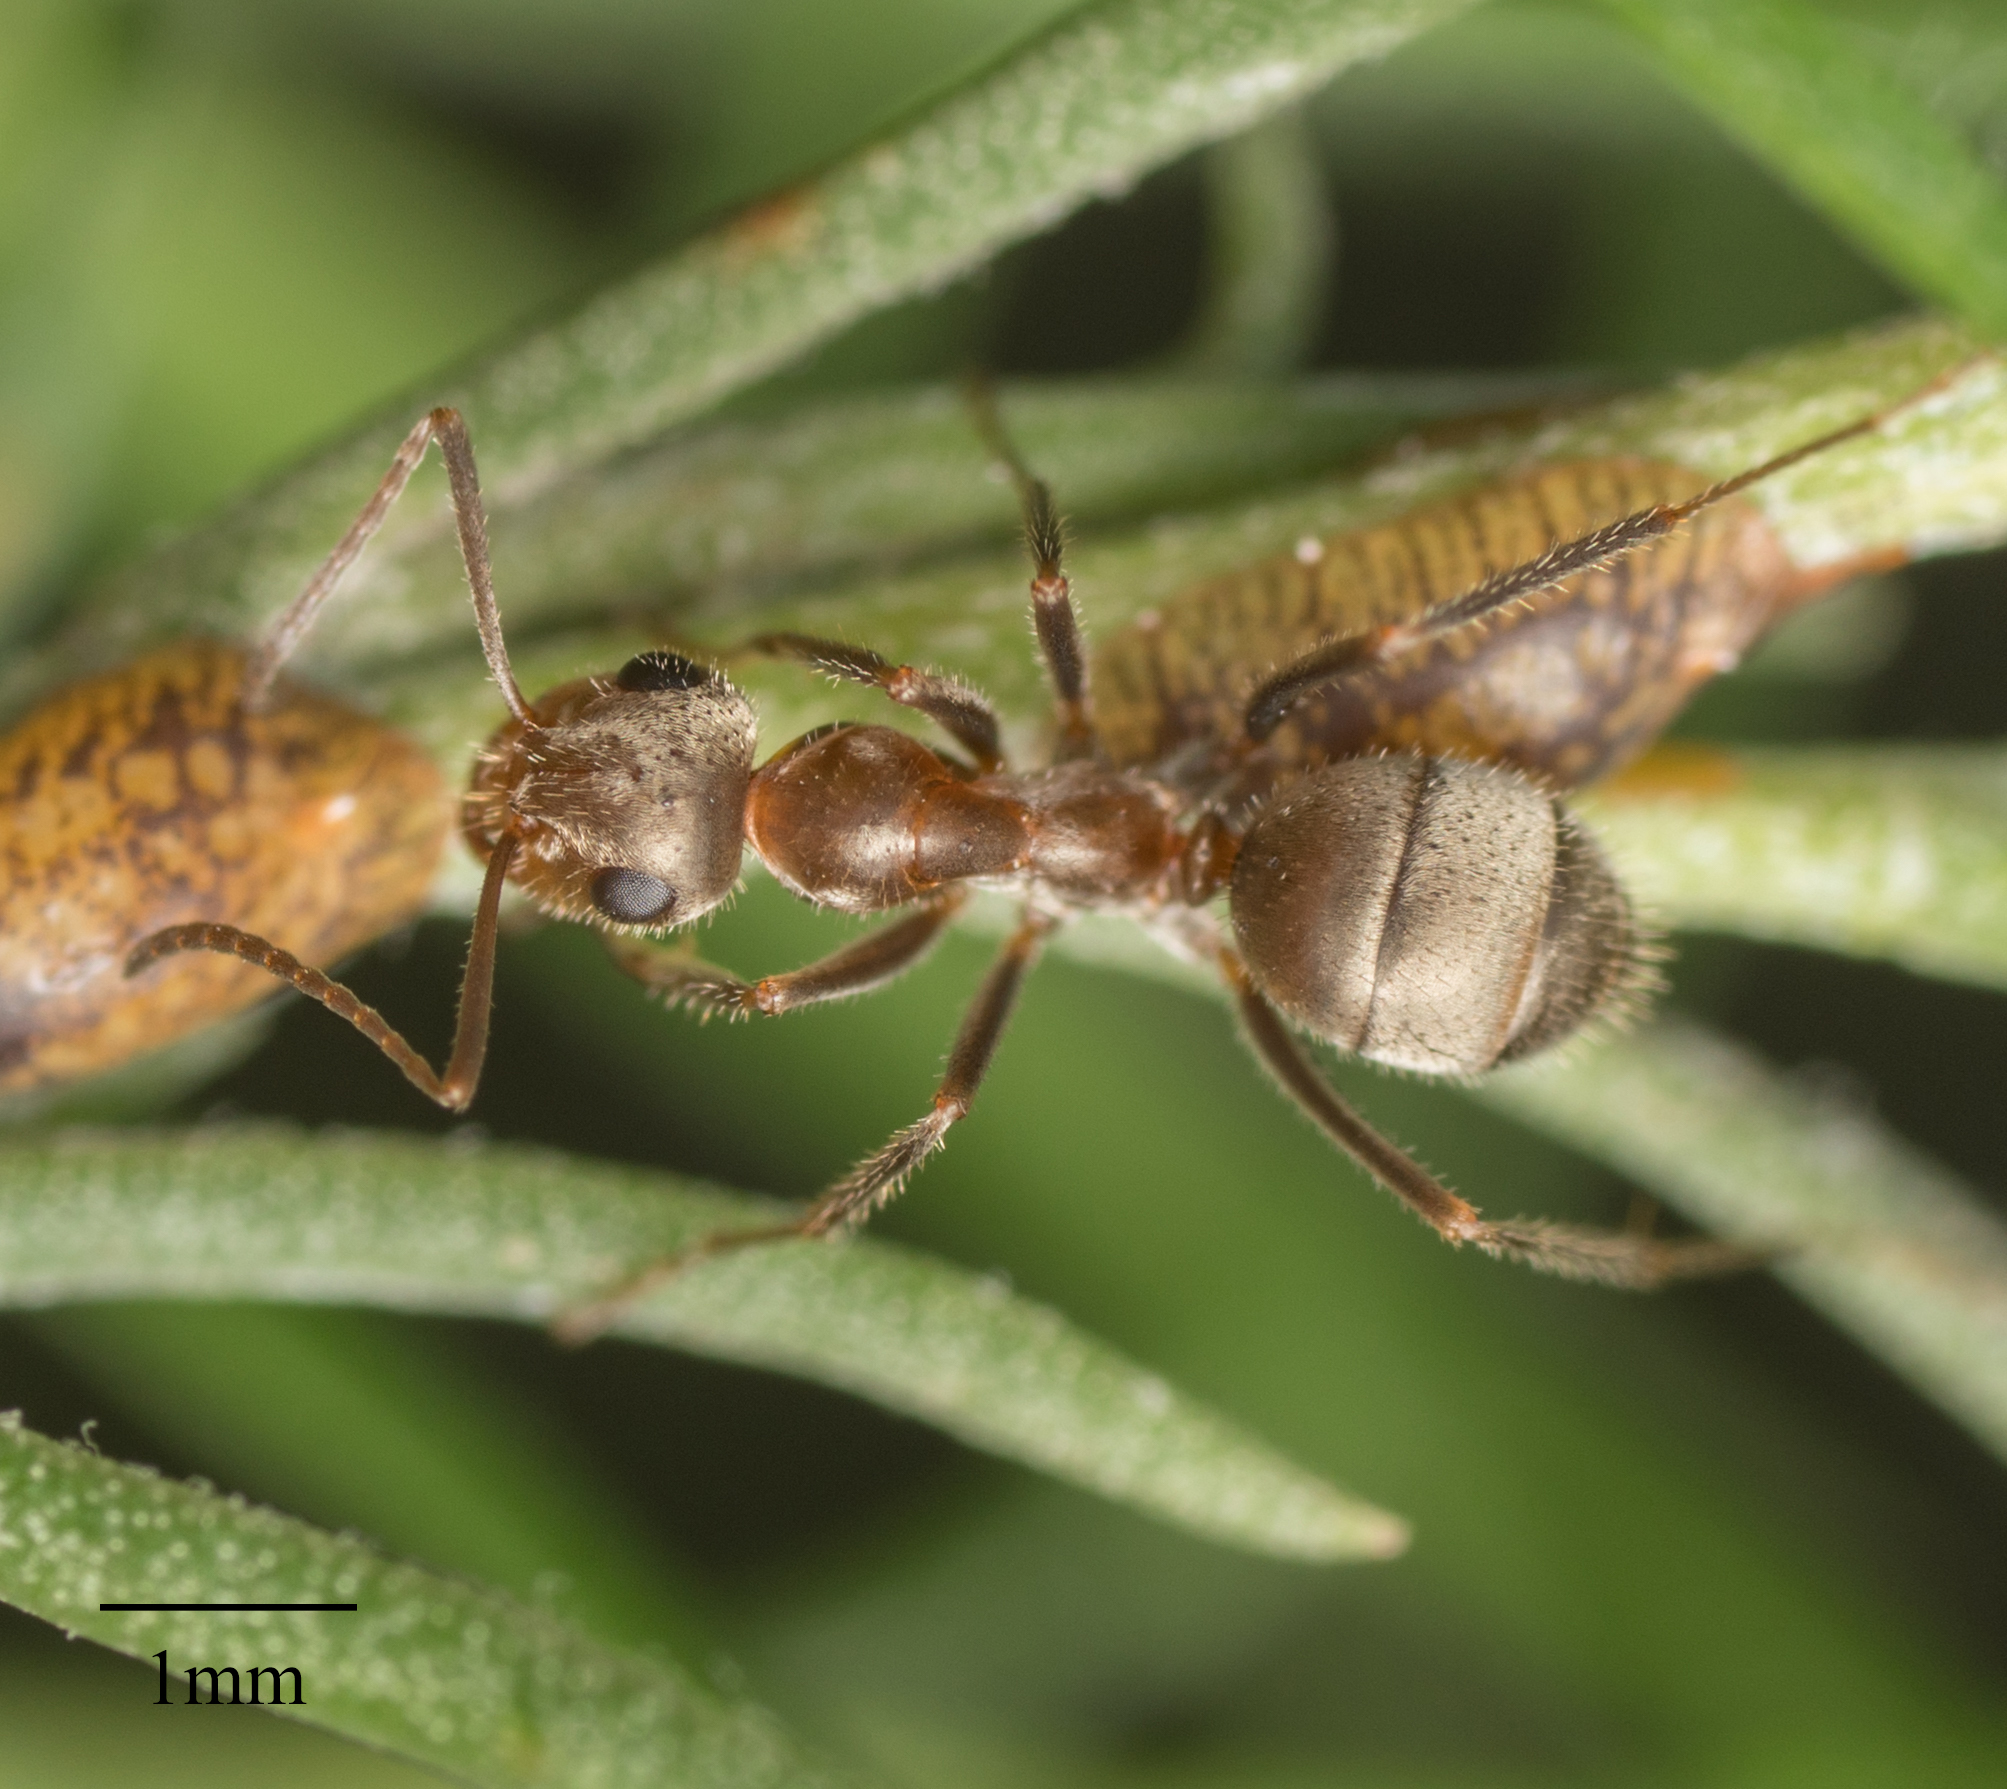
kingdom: Animalia
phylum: Arthropoda
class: Insecta
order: Hymenoptera
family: Formicidae
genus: Formica
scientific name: Formica francoeuri
